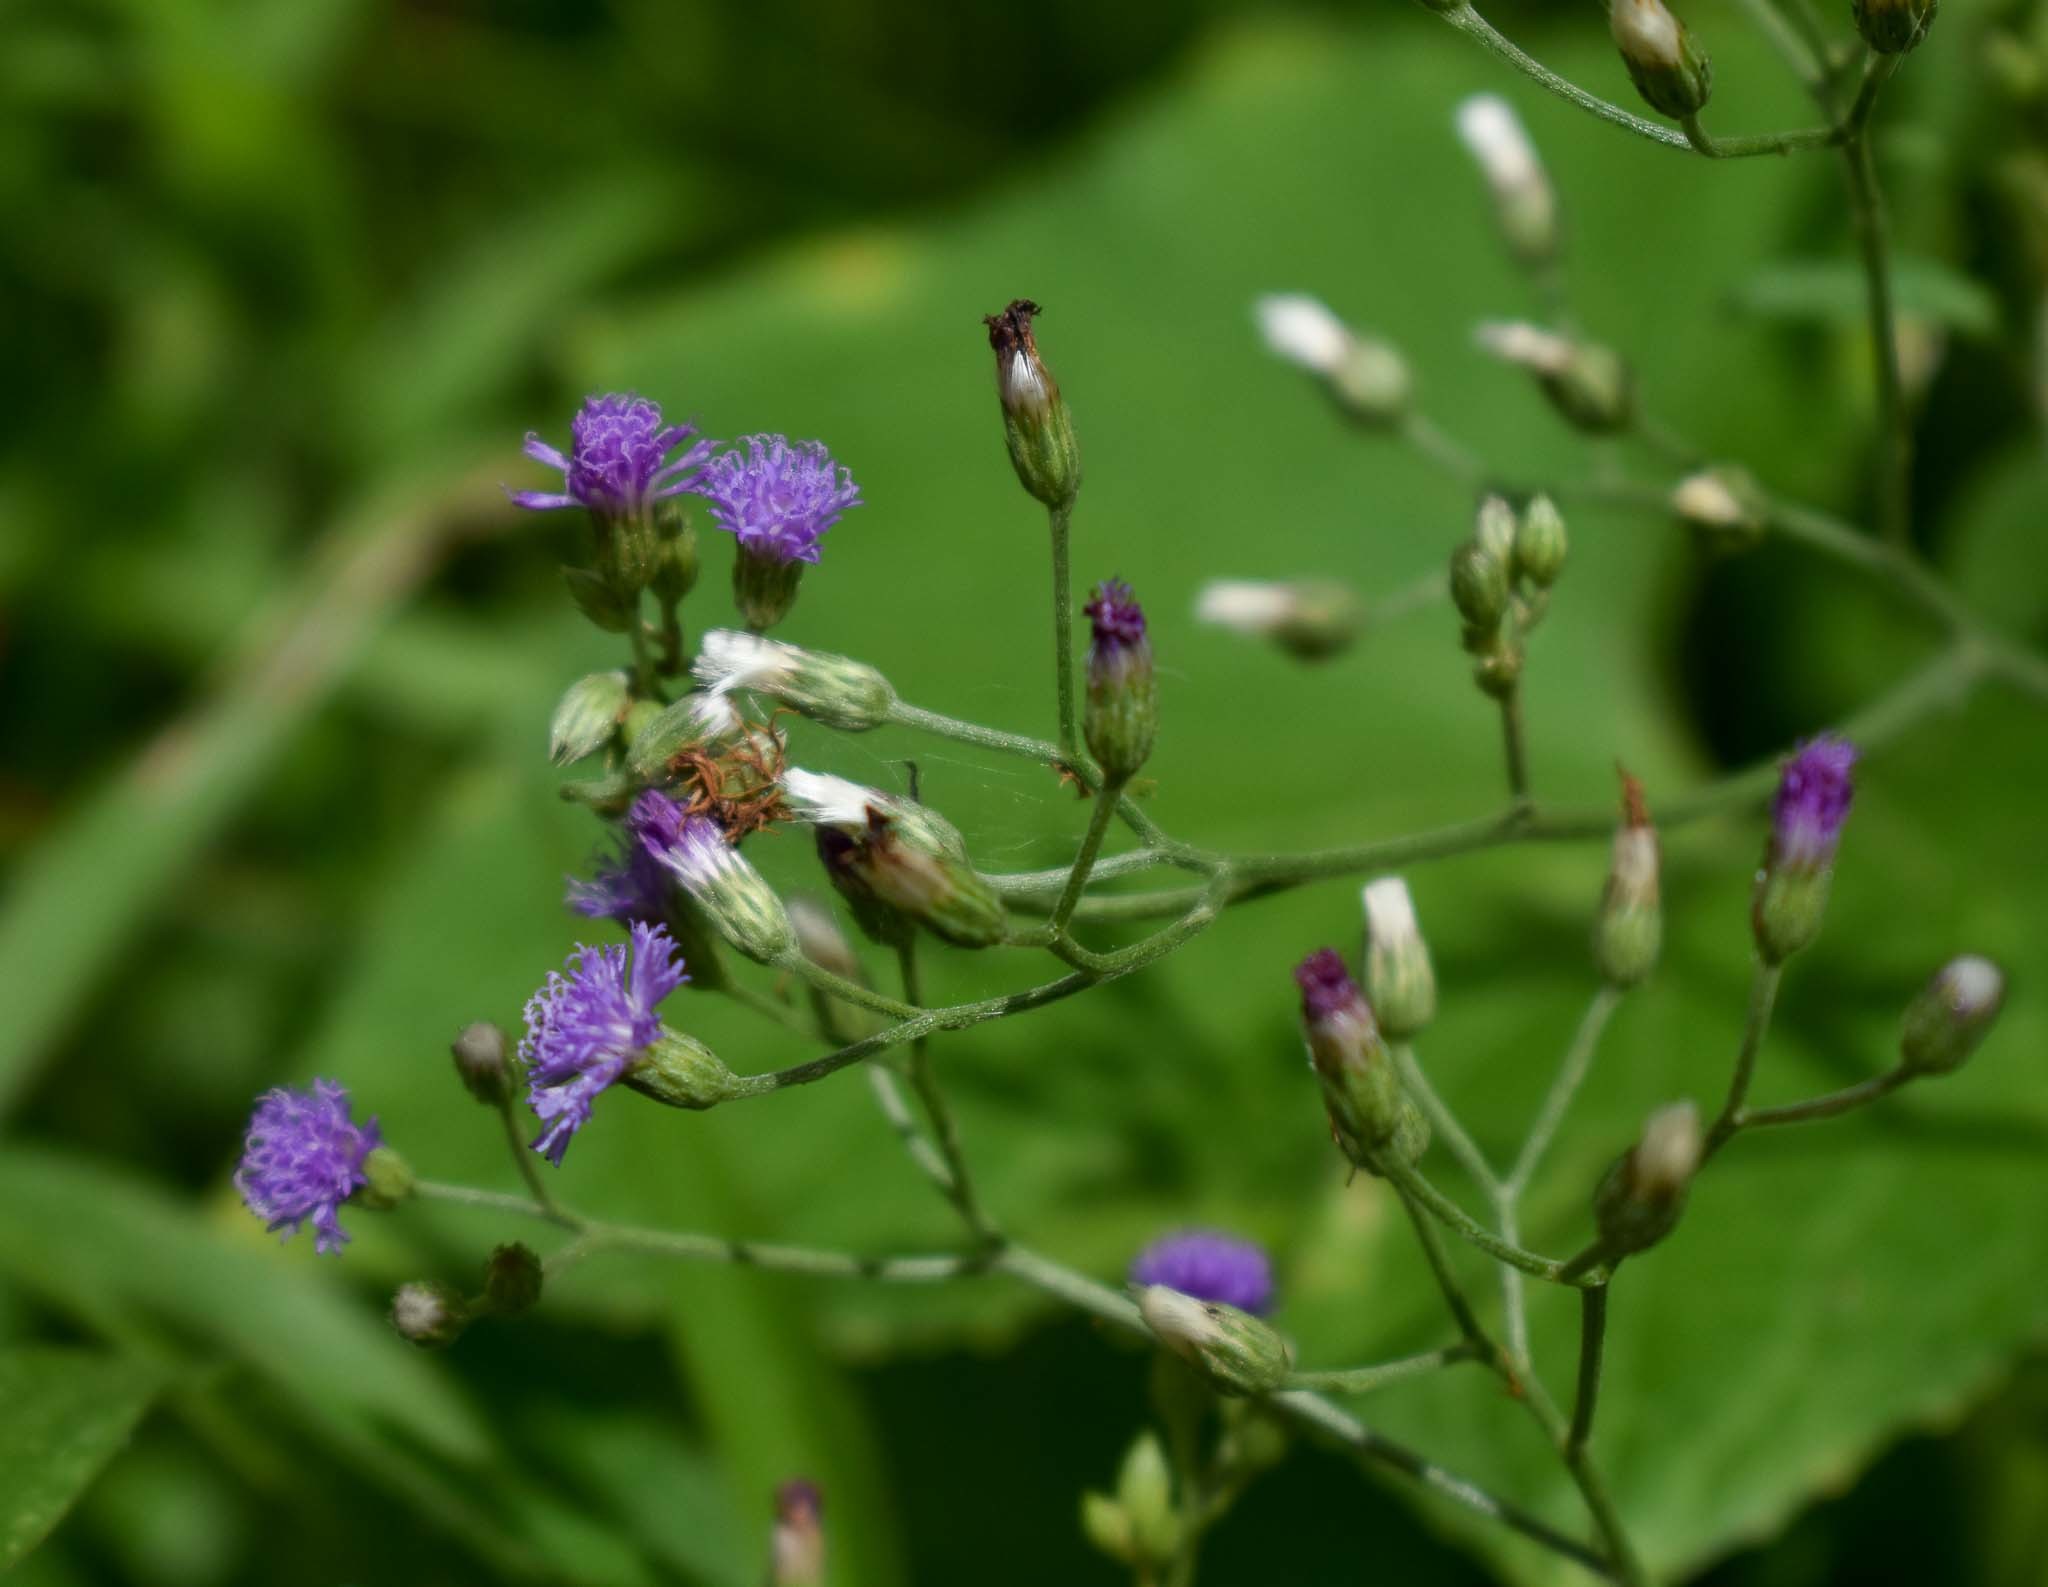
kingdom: Plantae
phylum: Tracheophyta
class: Magnoliopsida
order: Asterales
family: Asteraceae
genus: Cyanthillium
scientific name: Cyanthillium cinereum
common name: Little ironweed
